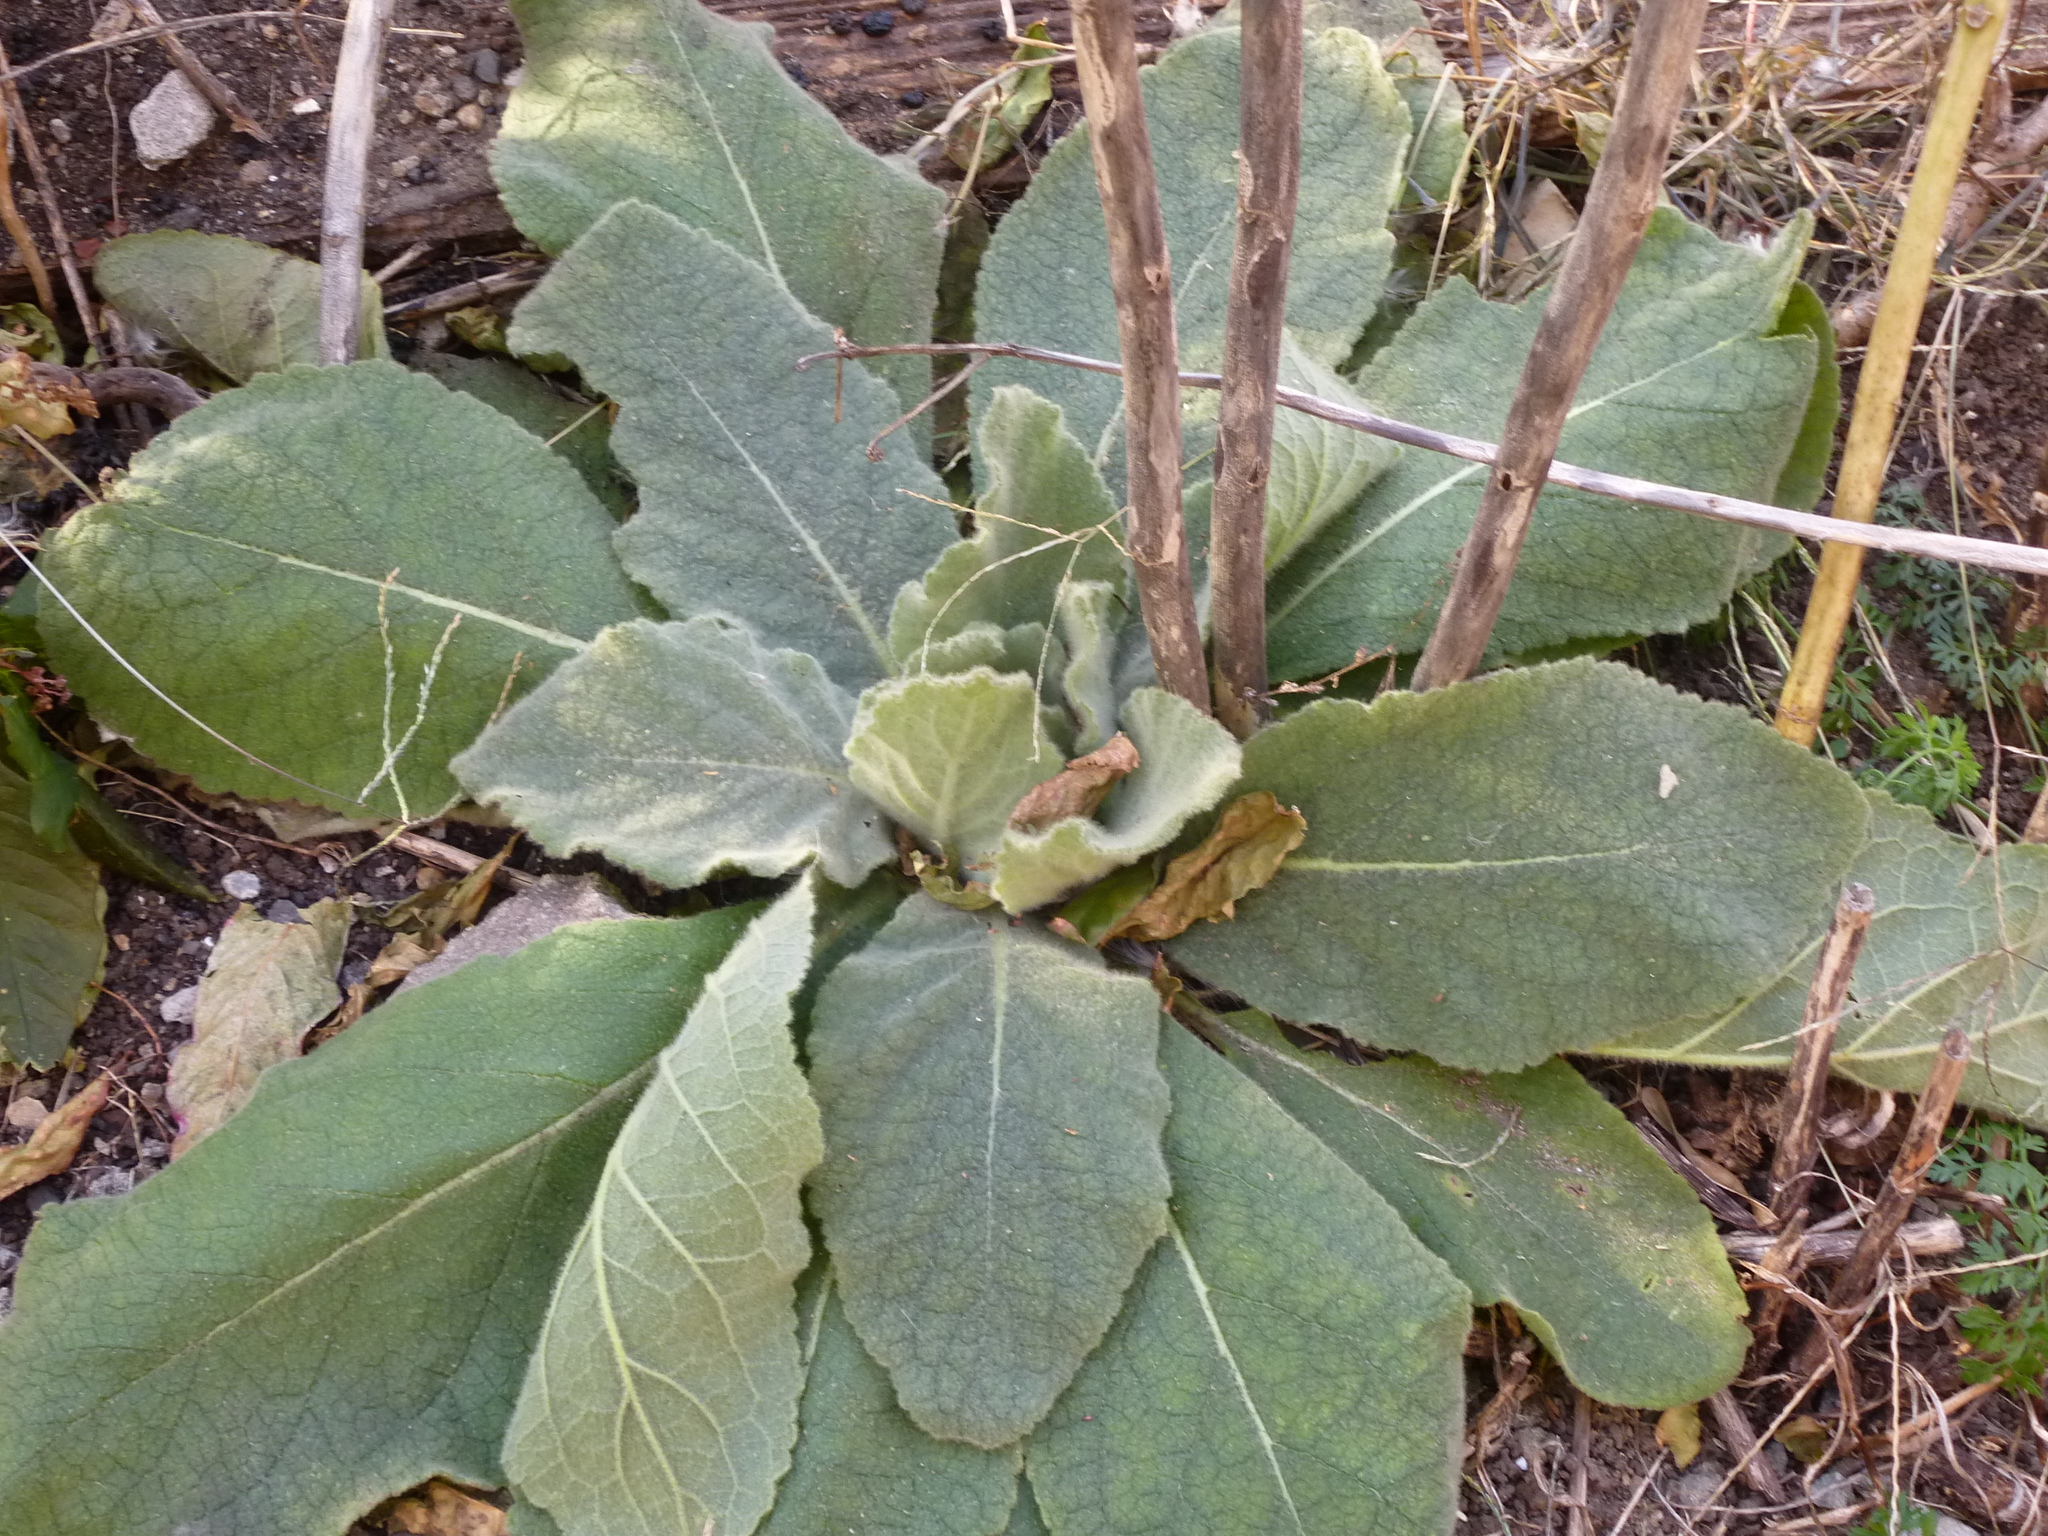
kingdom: Plantae
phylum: Tracheophyta
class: Magnoliopsida
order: Lamiales
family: Scrophulariaceae
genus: Verbascum
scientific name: Verbascum thapsus
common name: Common mullein
